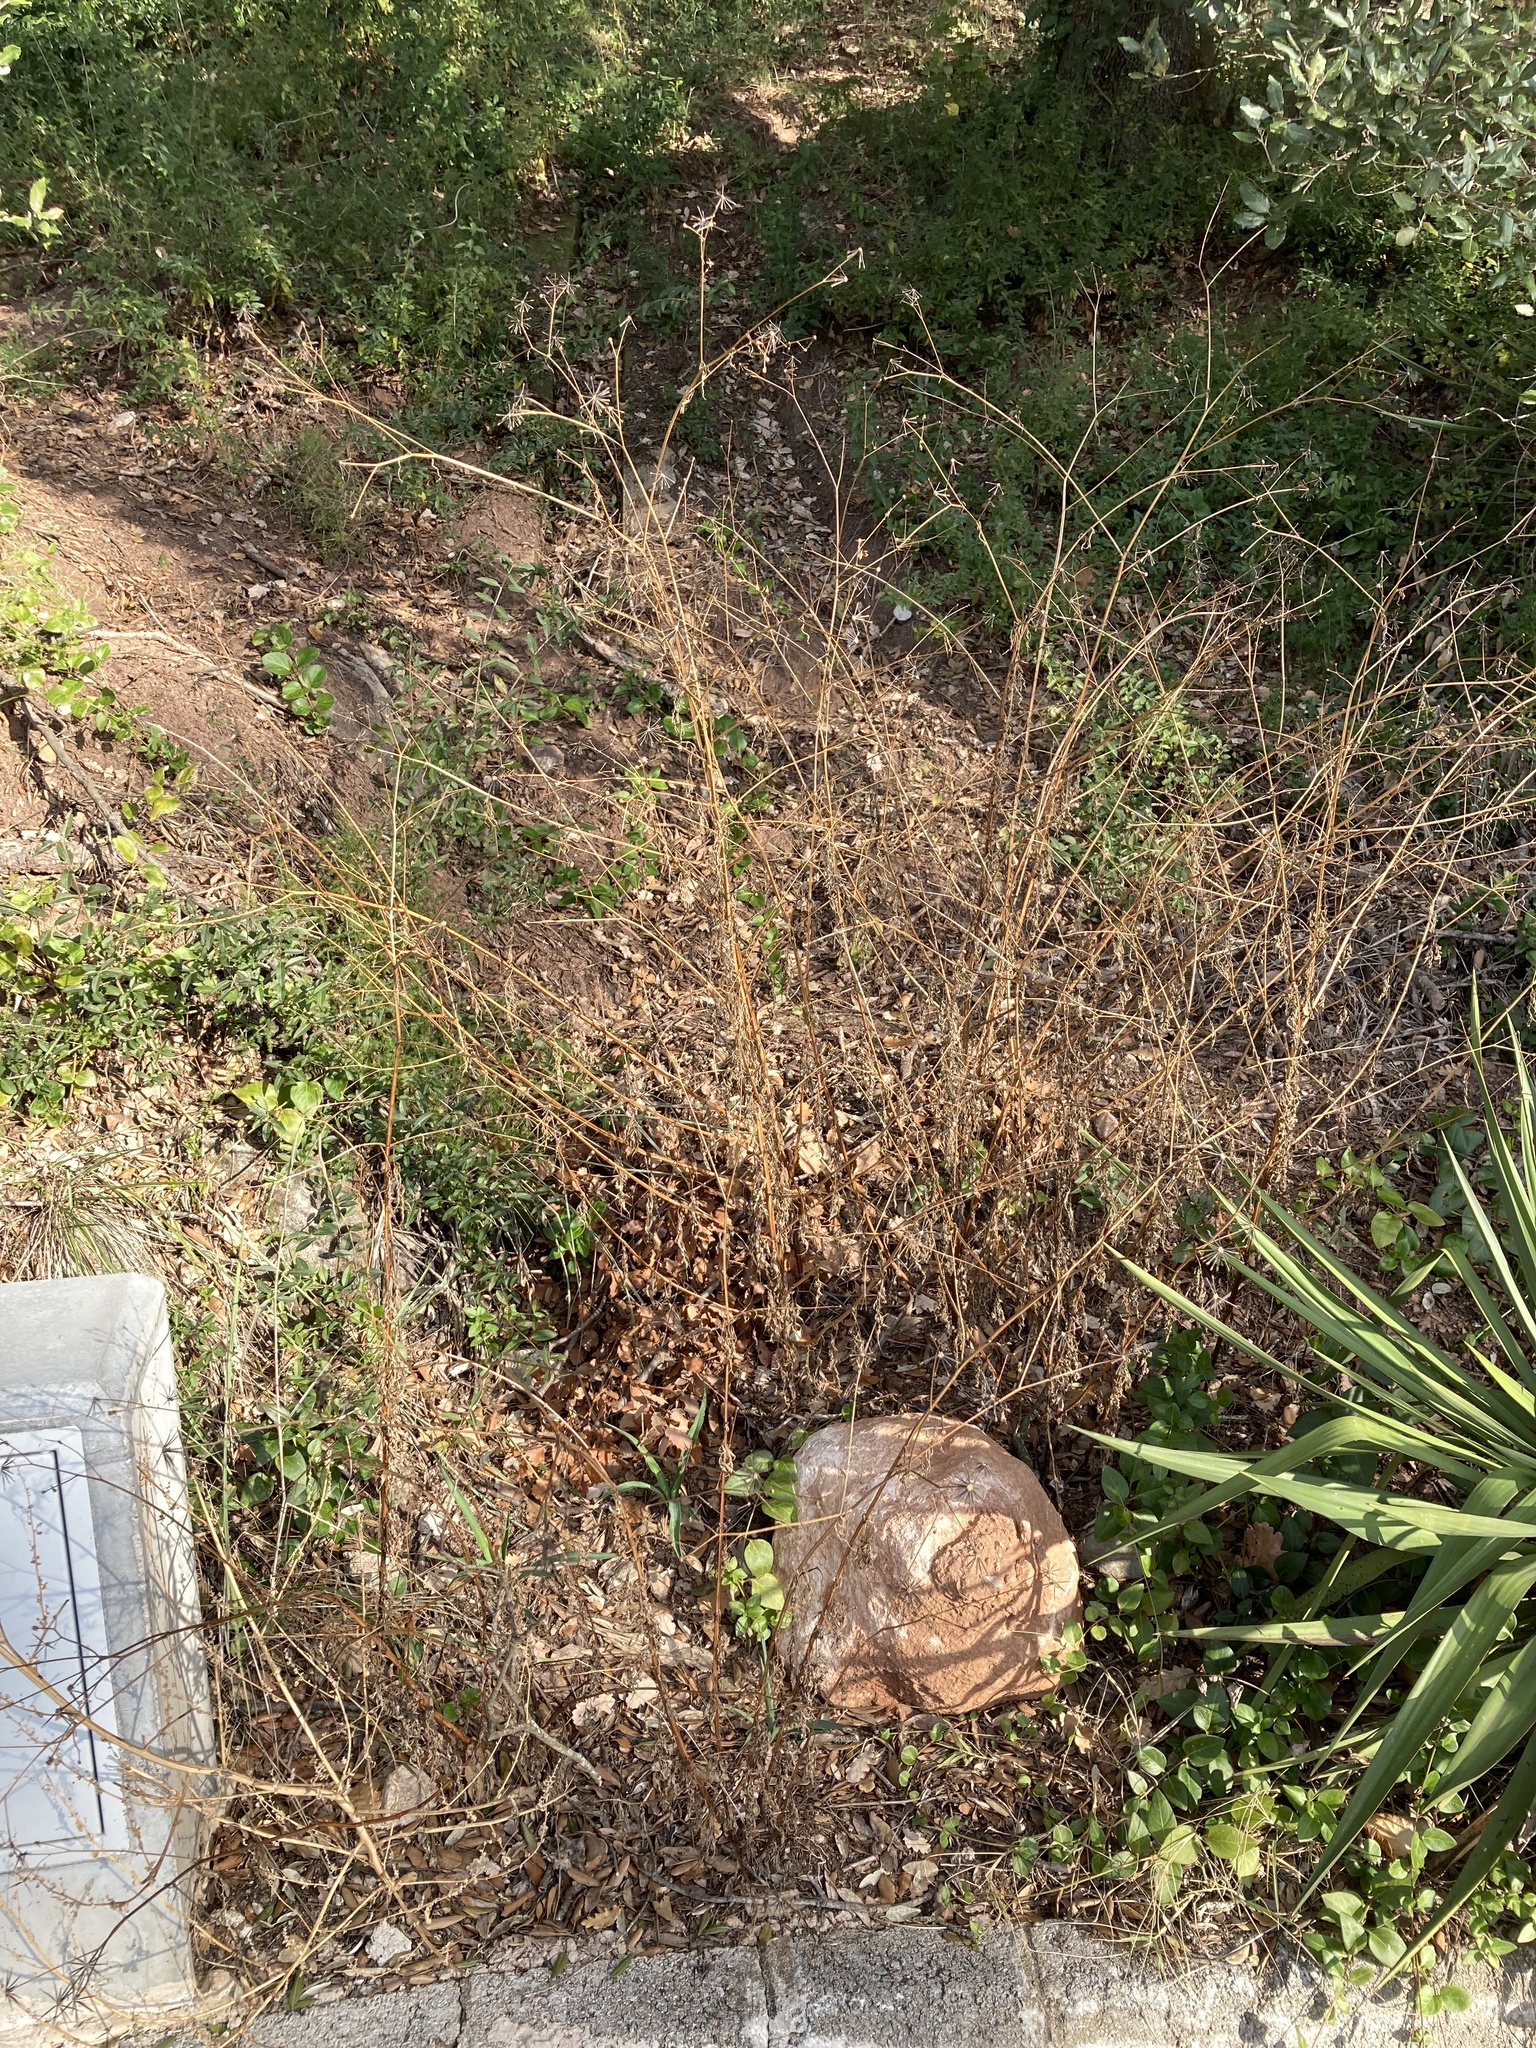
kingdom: Plantae
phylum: Tracheophyta
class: Magnoliopsida
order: Asterales
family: Asteraceae
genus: Bidens
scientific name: Bidens subalternans
